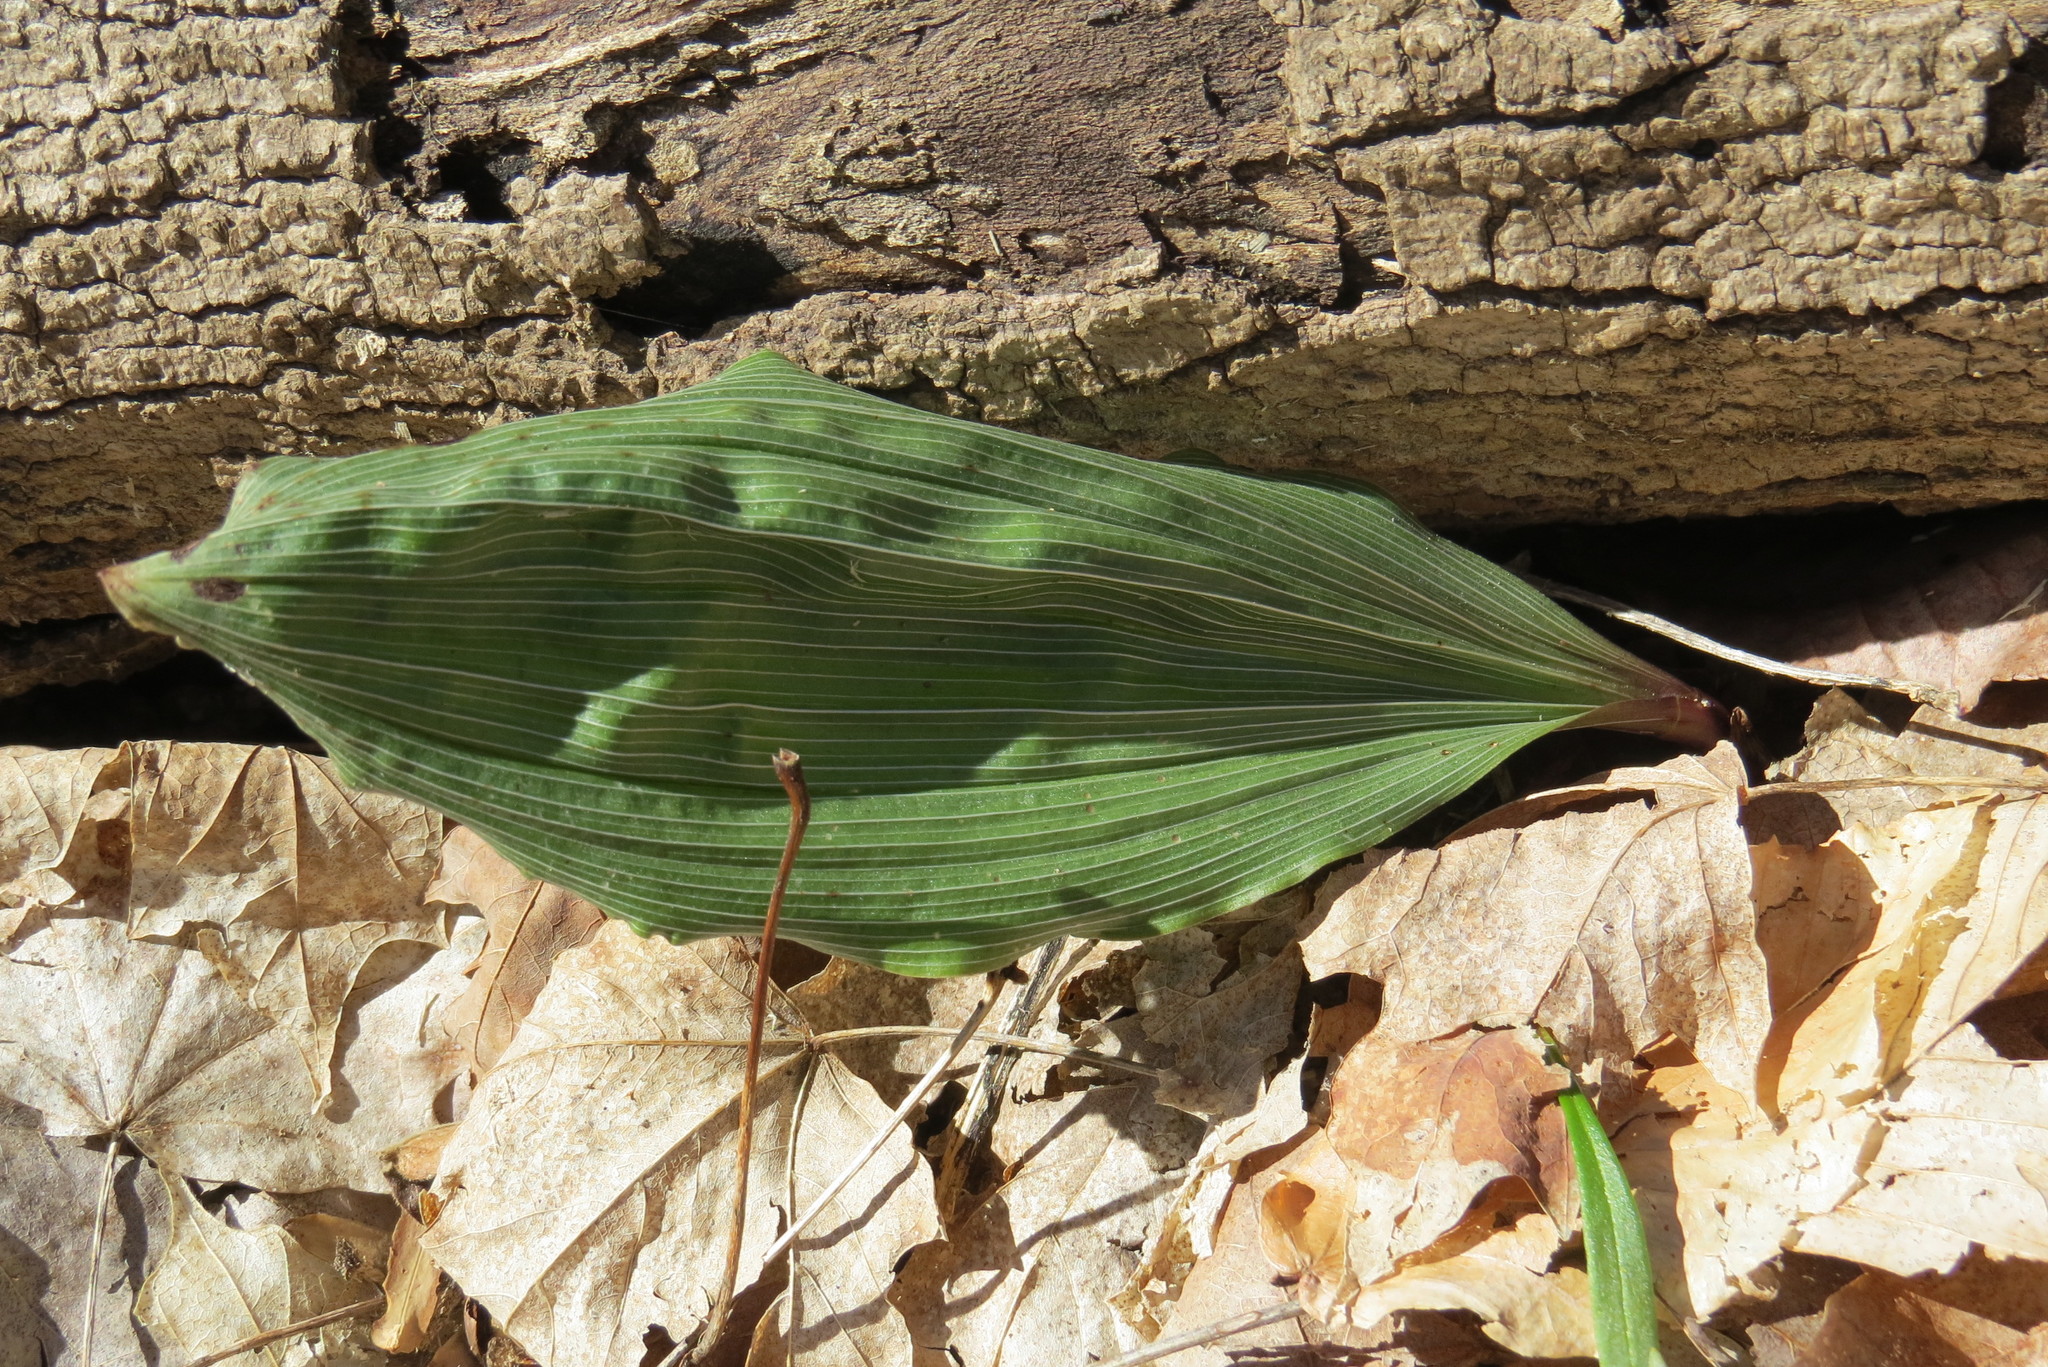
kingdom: Plantae
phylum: Tracheophyta
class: Liliopsida
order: Asparagales
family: Orchidaceae
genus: Aplectrum
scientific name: Aplectrum hyemale
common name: Adam-and-eve
